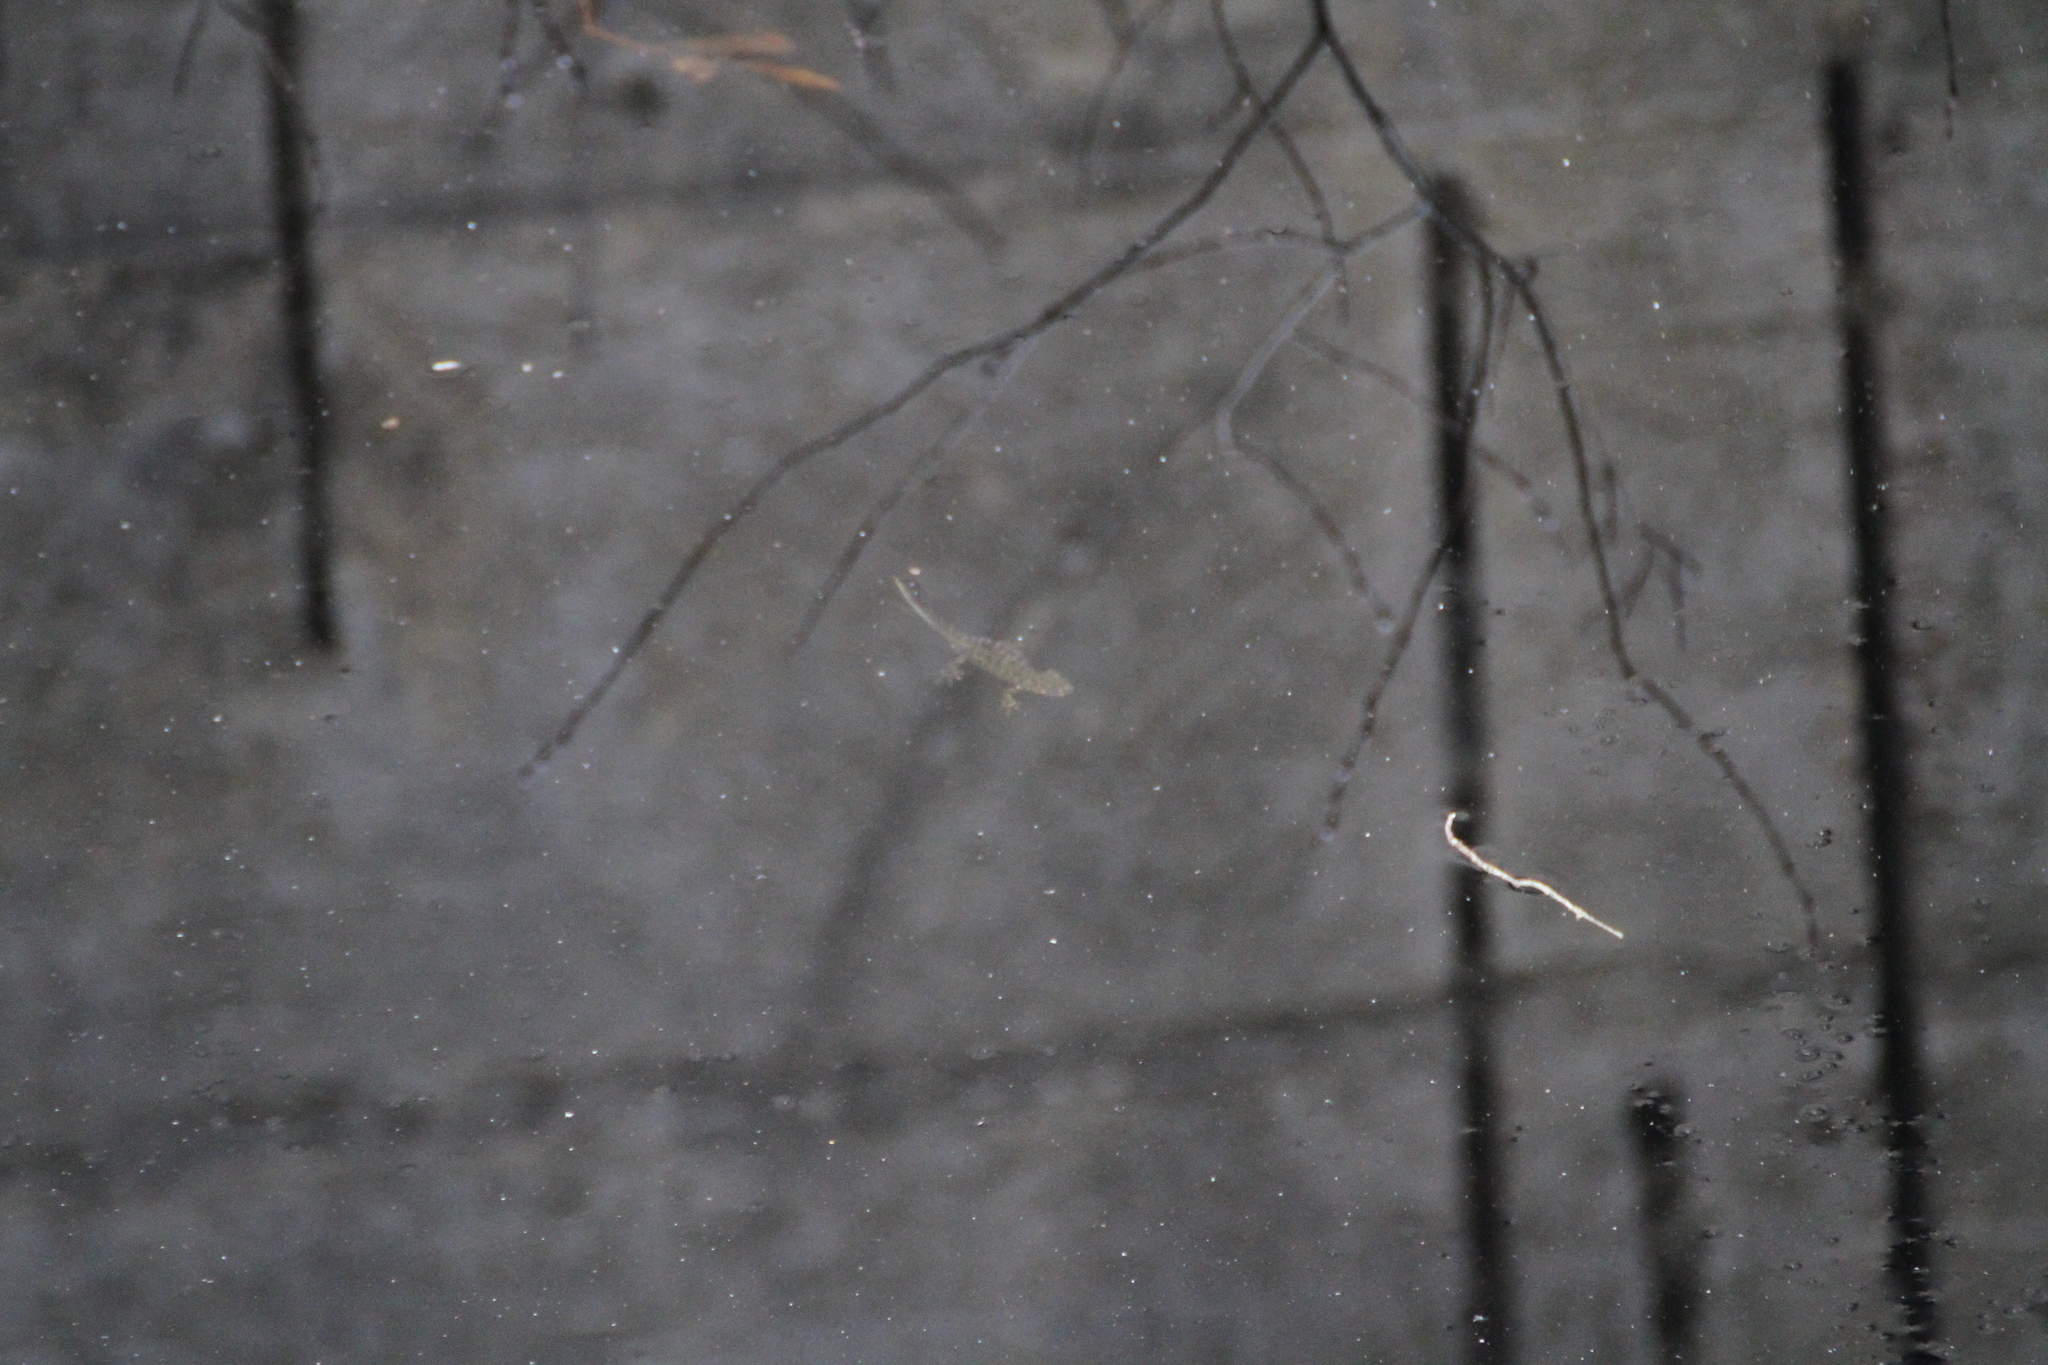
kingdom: Animalia
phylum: Chordata
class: Amphibia
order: Caudata
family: Salamandridae
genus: Triturus
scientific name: Triturus marmoratus
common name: Marbled newt
